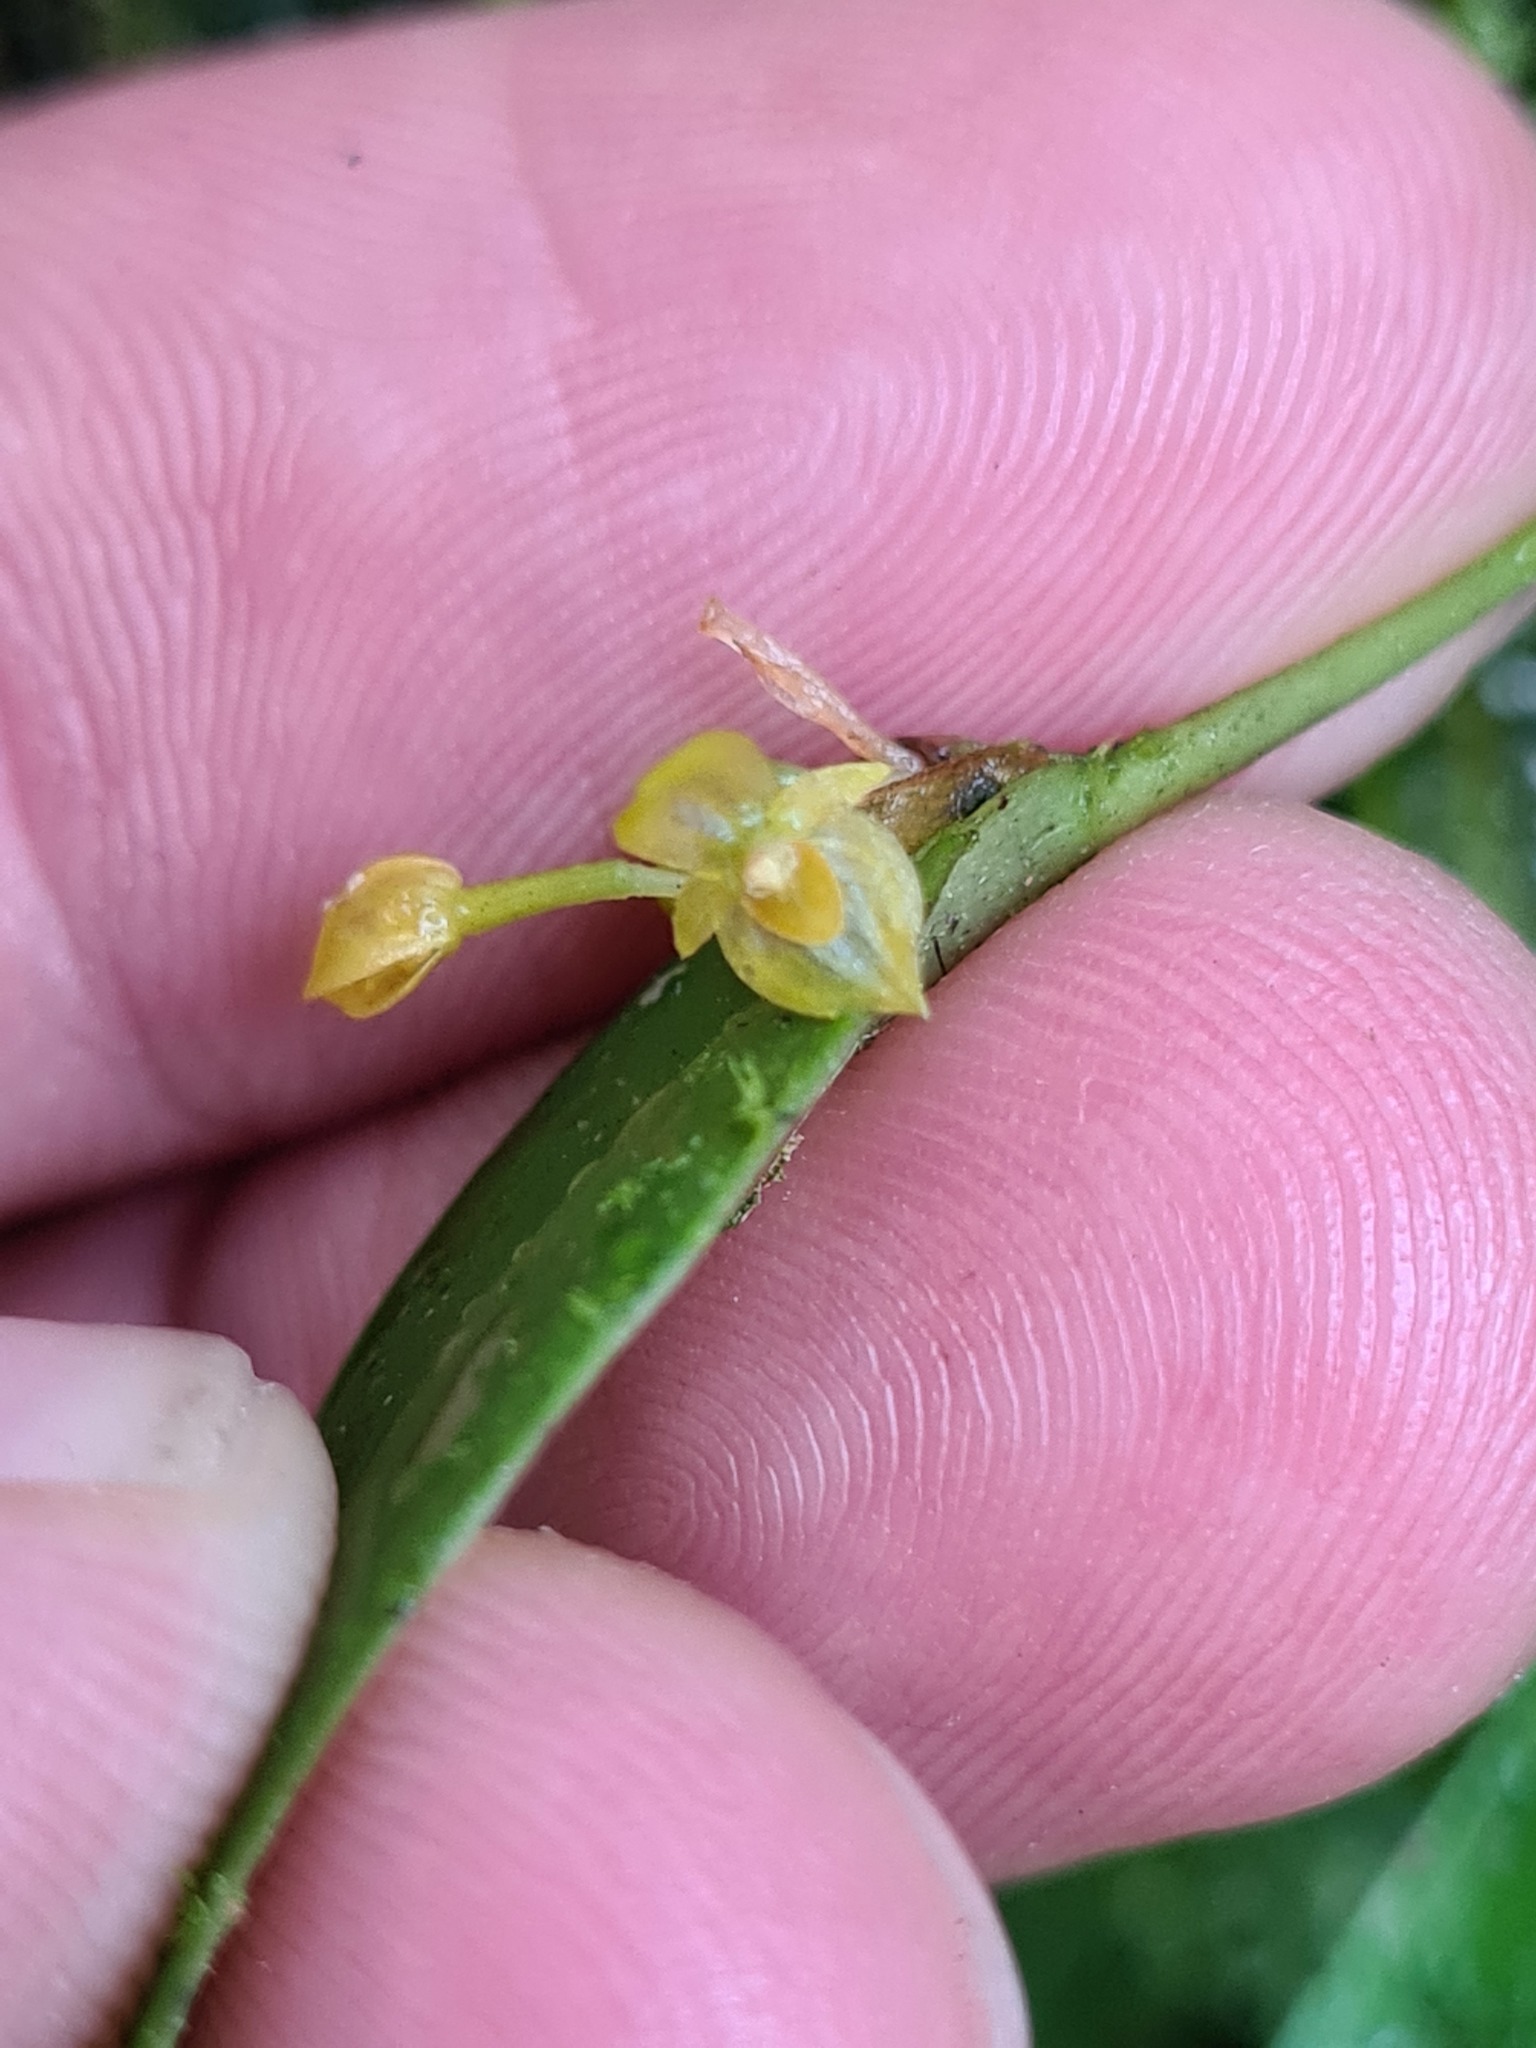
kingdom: Plantae
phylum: Tracheophyta
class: Liliopsida
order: Asparagales
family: Orchidaceae
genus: Pleurothallis
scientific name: Pleurothallis dibolia
